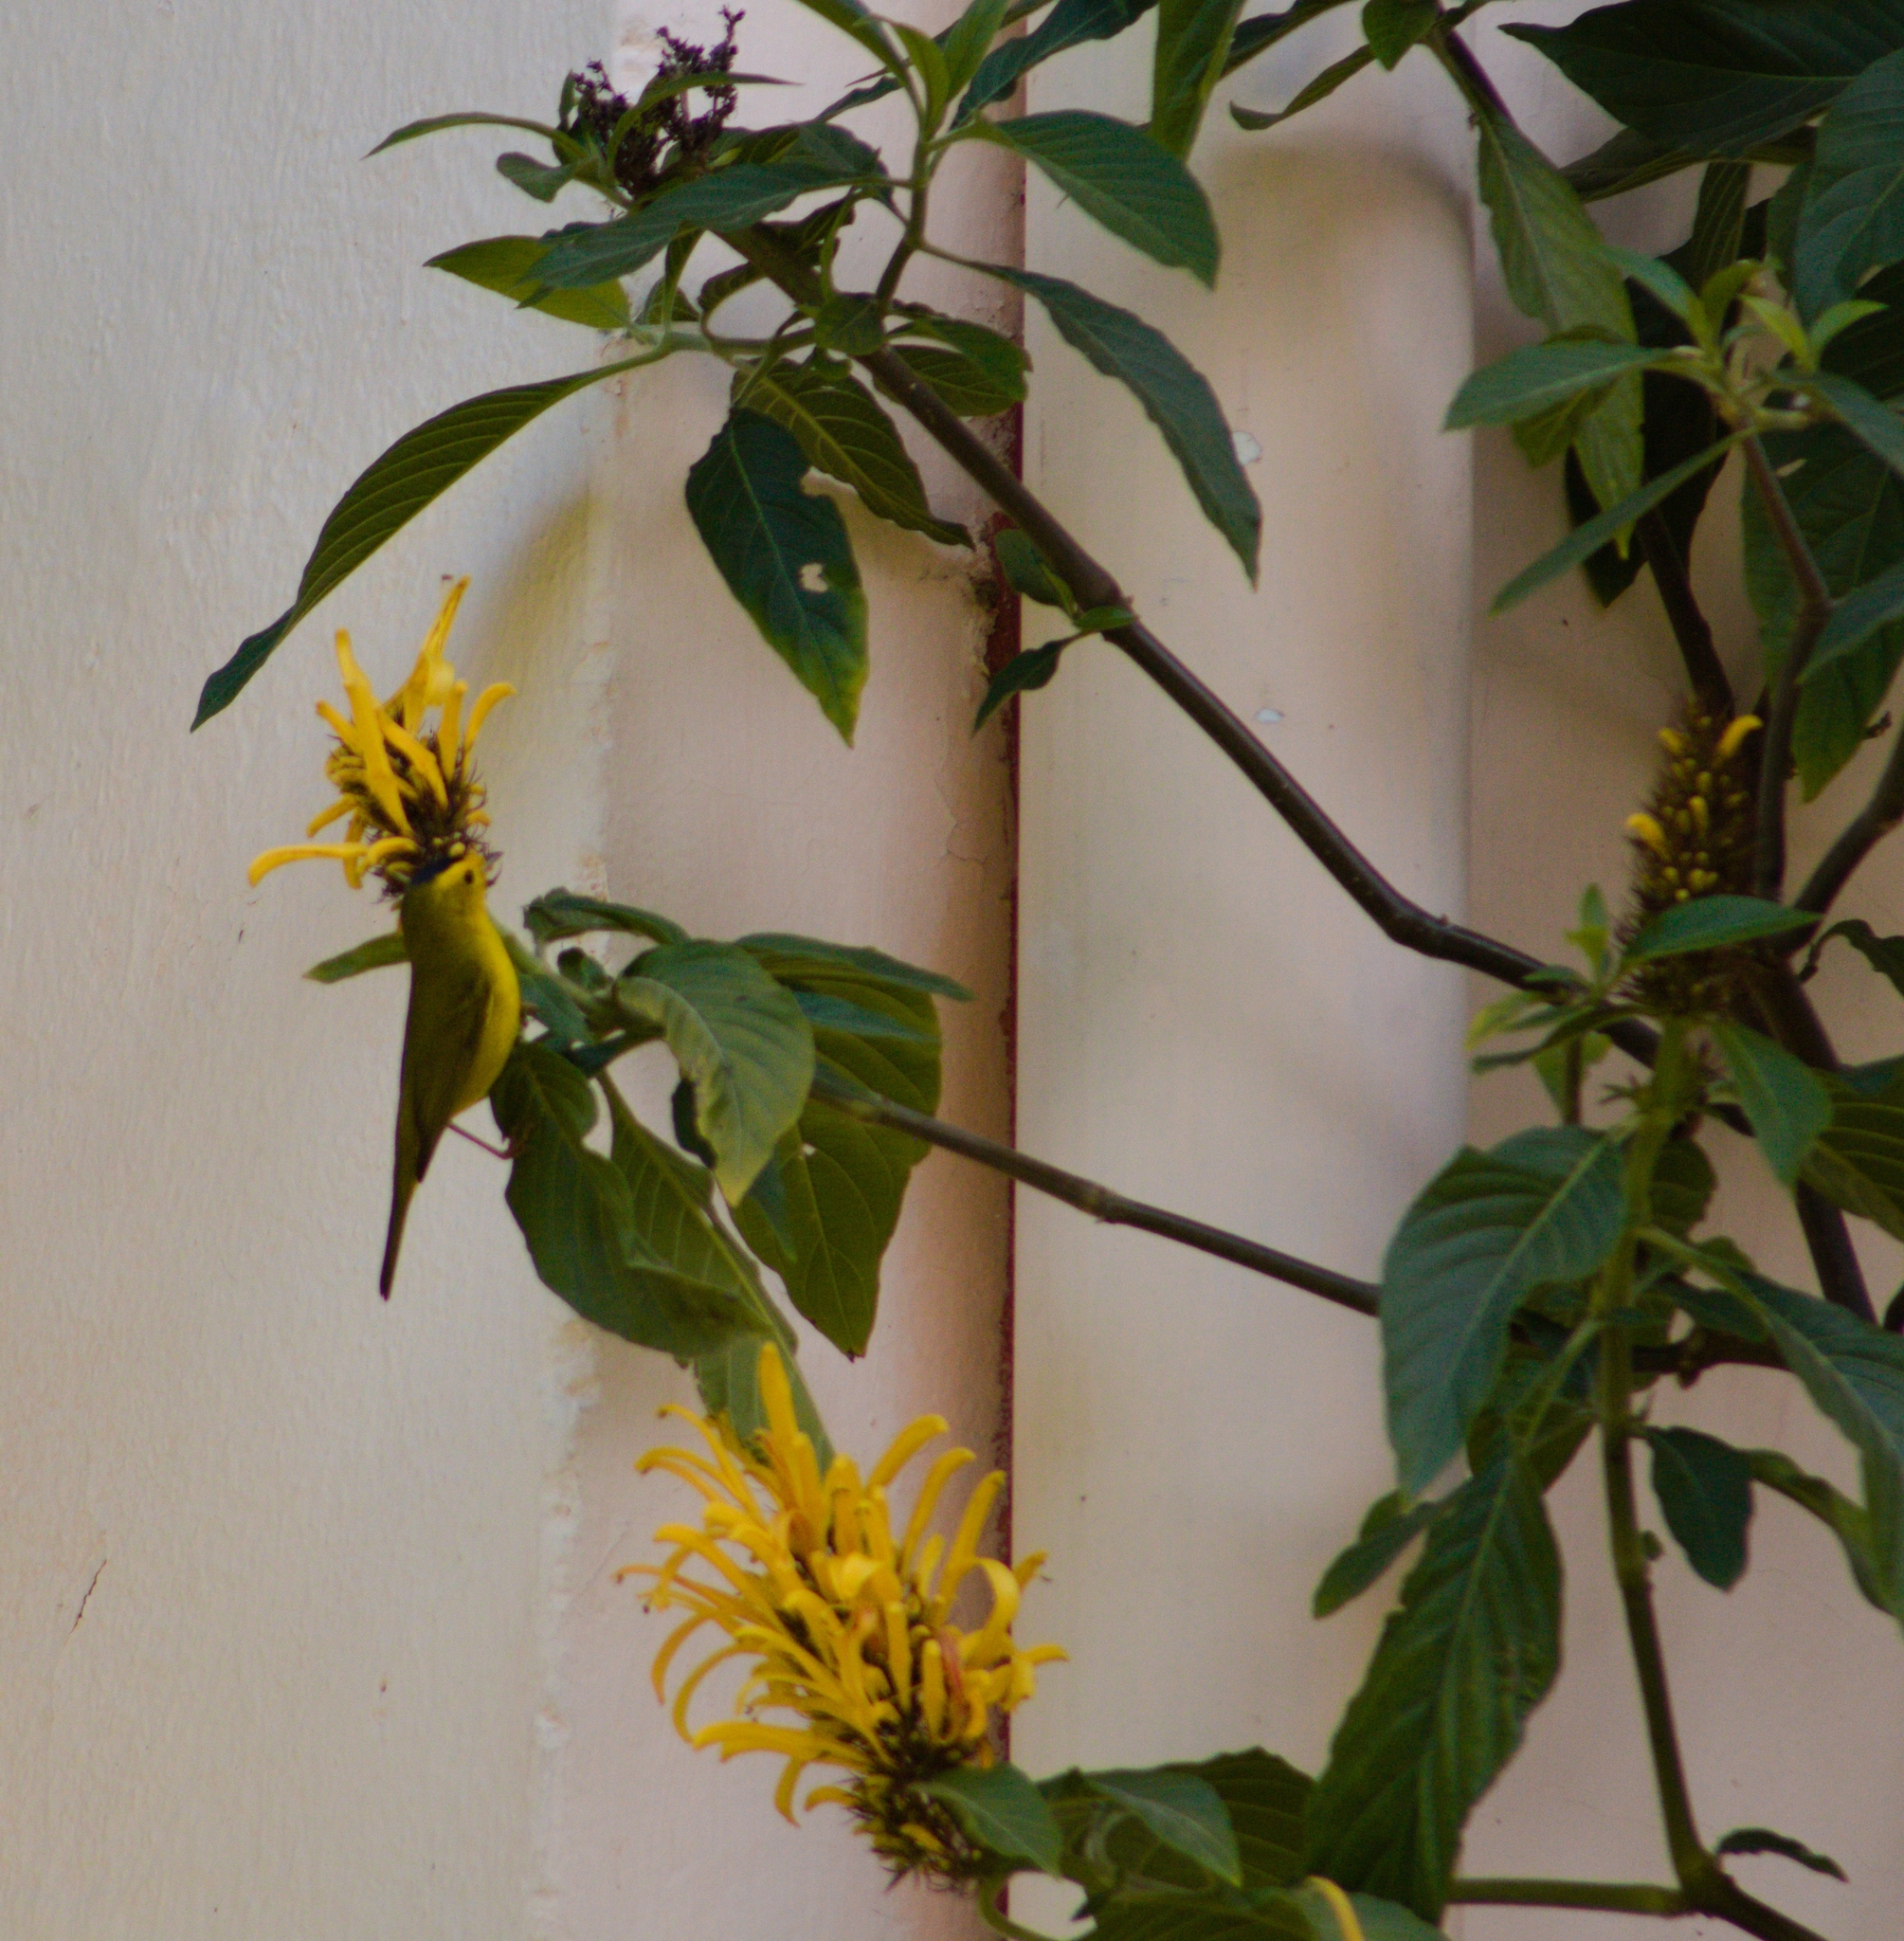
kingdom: Animalia
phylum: Chordata
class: Aves
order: Passeriformes
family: Parulidae
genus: Cardellina
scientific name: Cardellina pusilla
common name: Wilson's warbler
